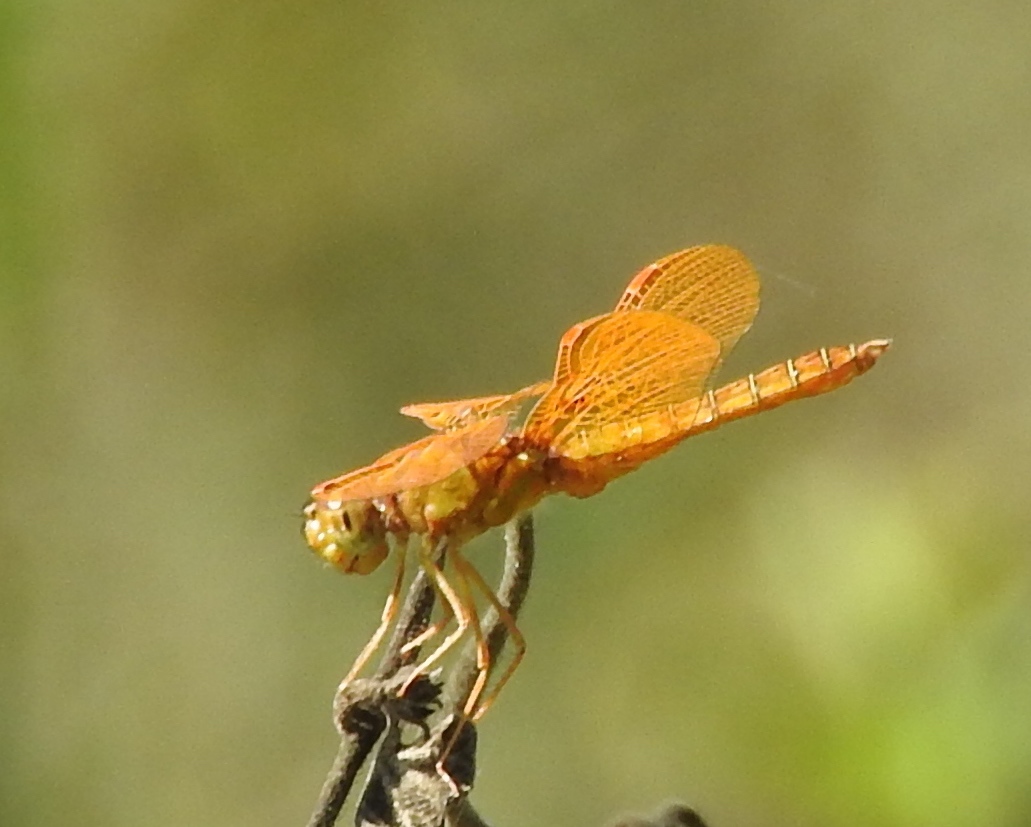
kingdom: Animalia
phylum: Arthropoda
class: Insecta
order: Odonata
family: Libellulidae
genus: Perithemis
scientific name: Perithemis intensa
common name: Mexican amberwing
